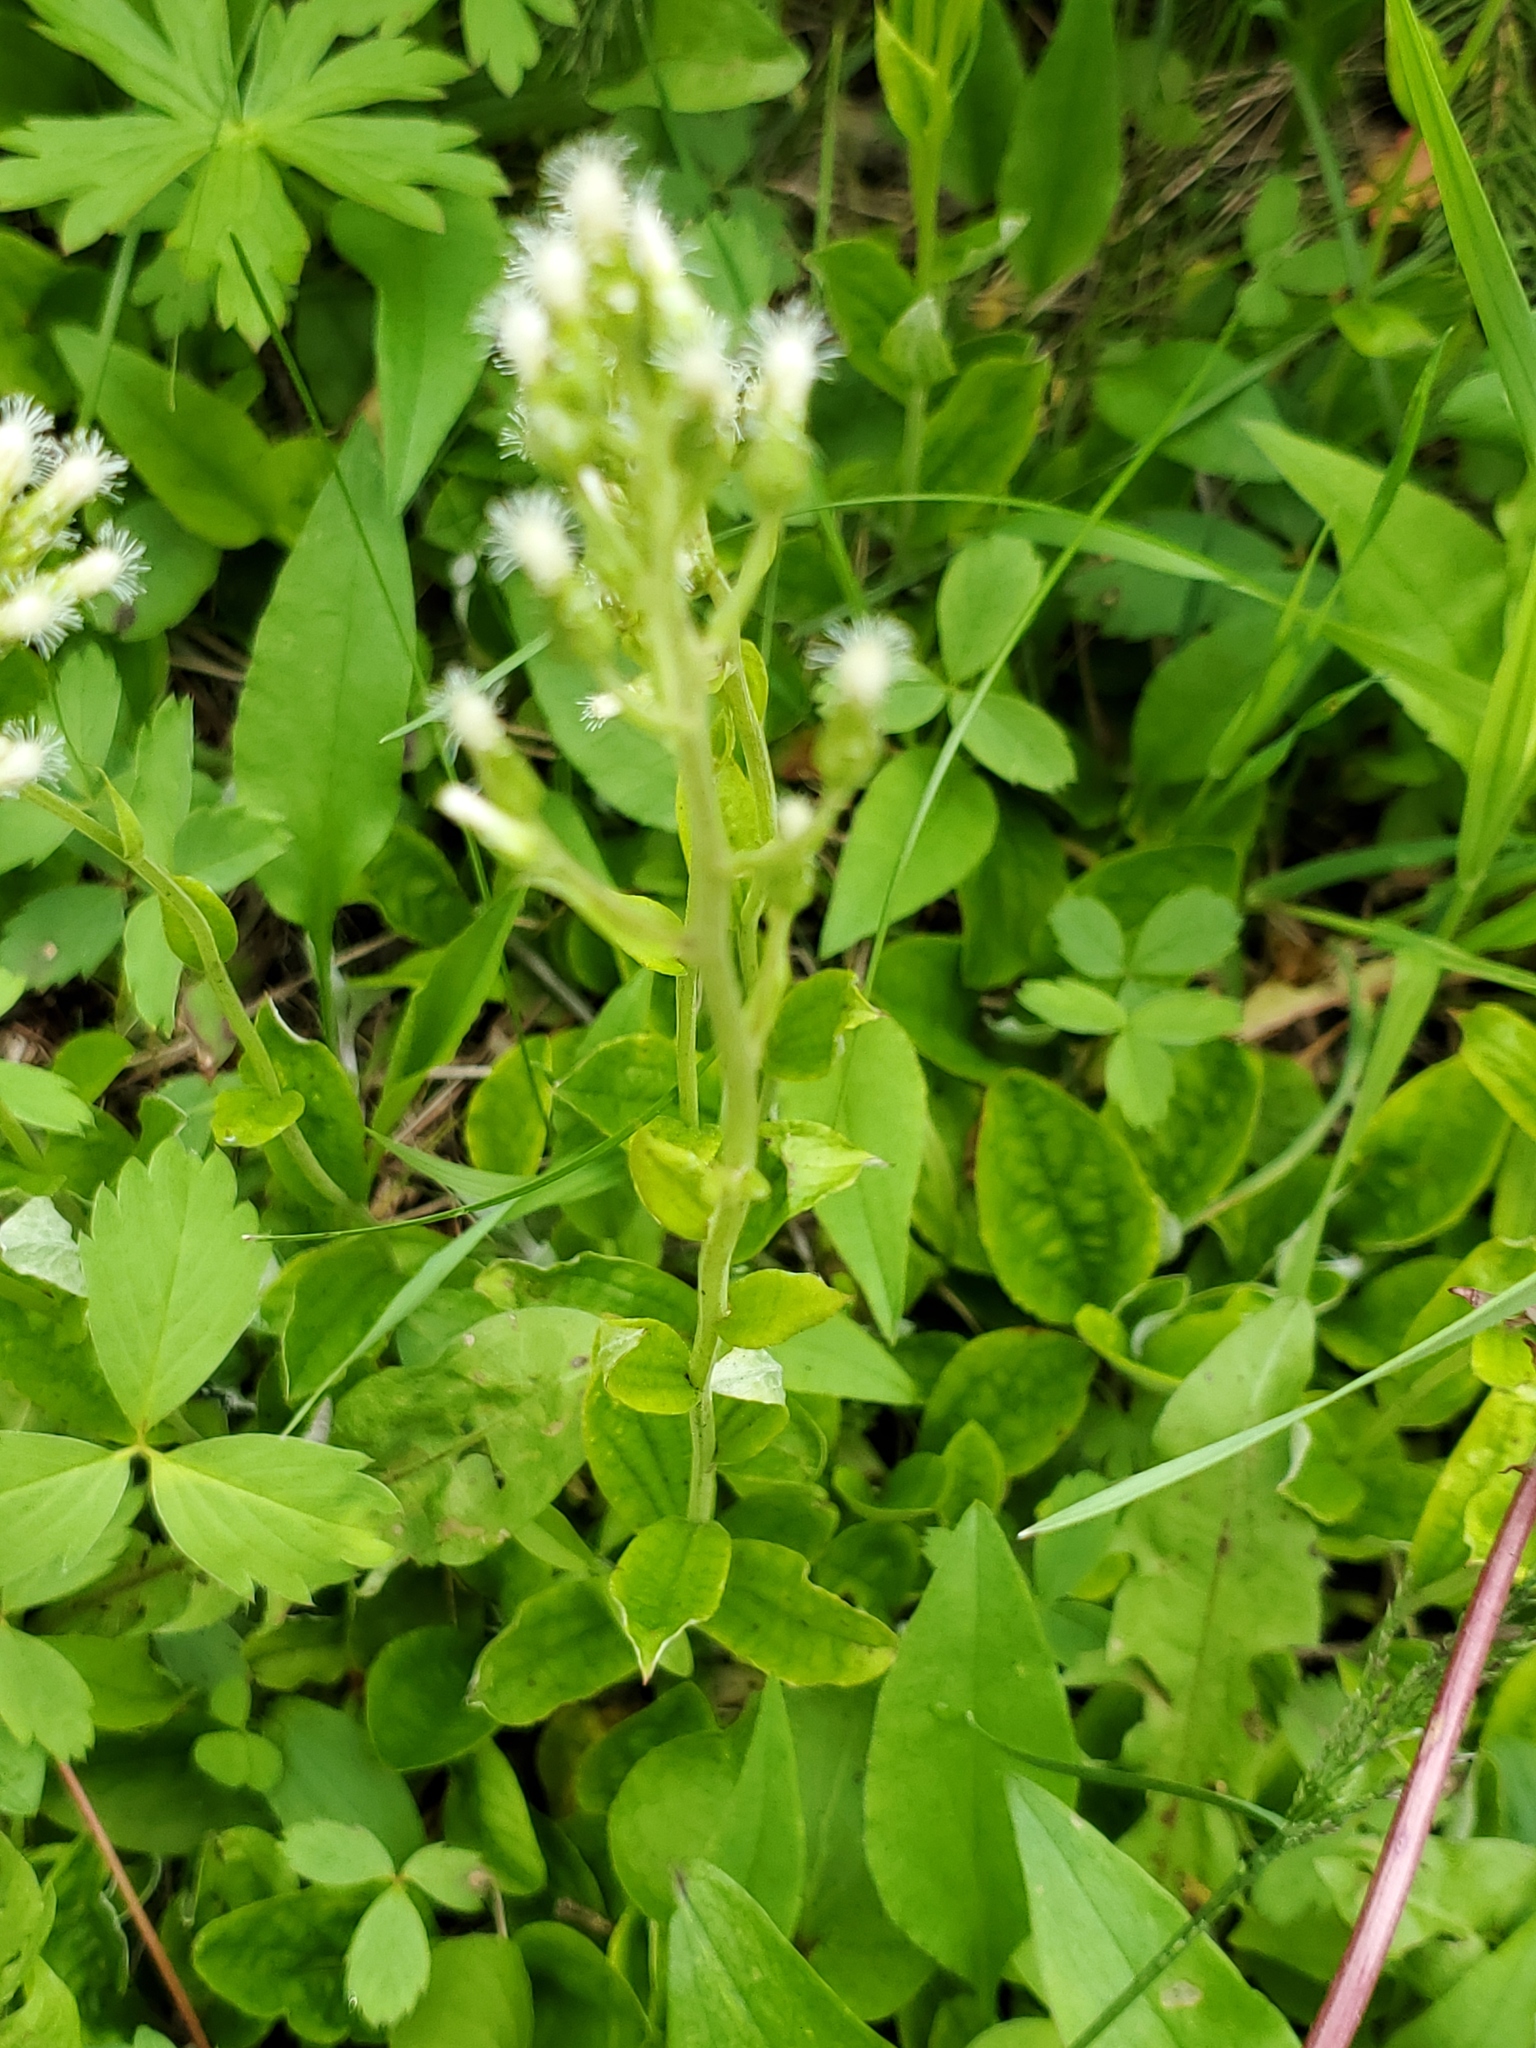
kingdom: Plantae
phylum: Tracheophyta
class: Magnoliopsida
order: Asterales
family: Asteraceae
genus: Antennaria
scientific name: Antennaria racemosa
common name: Racemose pussytoes
